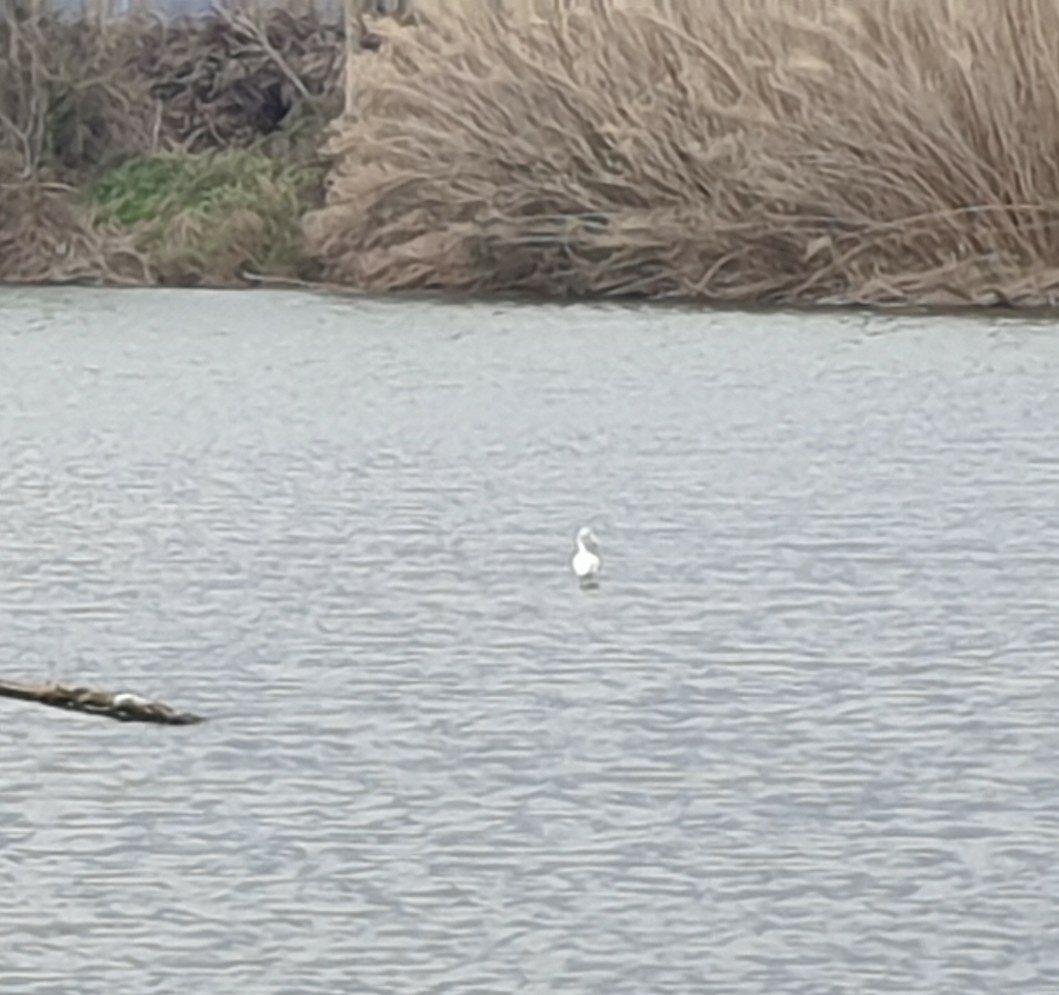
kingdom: Animalia
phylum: Chordata
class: Aves
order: Phoenicopteriformes
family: Phoenicopteridae
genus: Phoenicopterus
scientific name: Phoenicopterus roseus
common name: Greater flamingo
